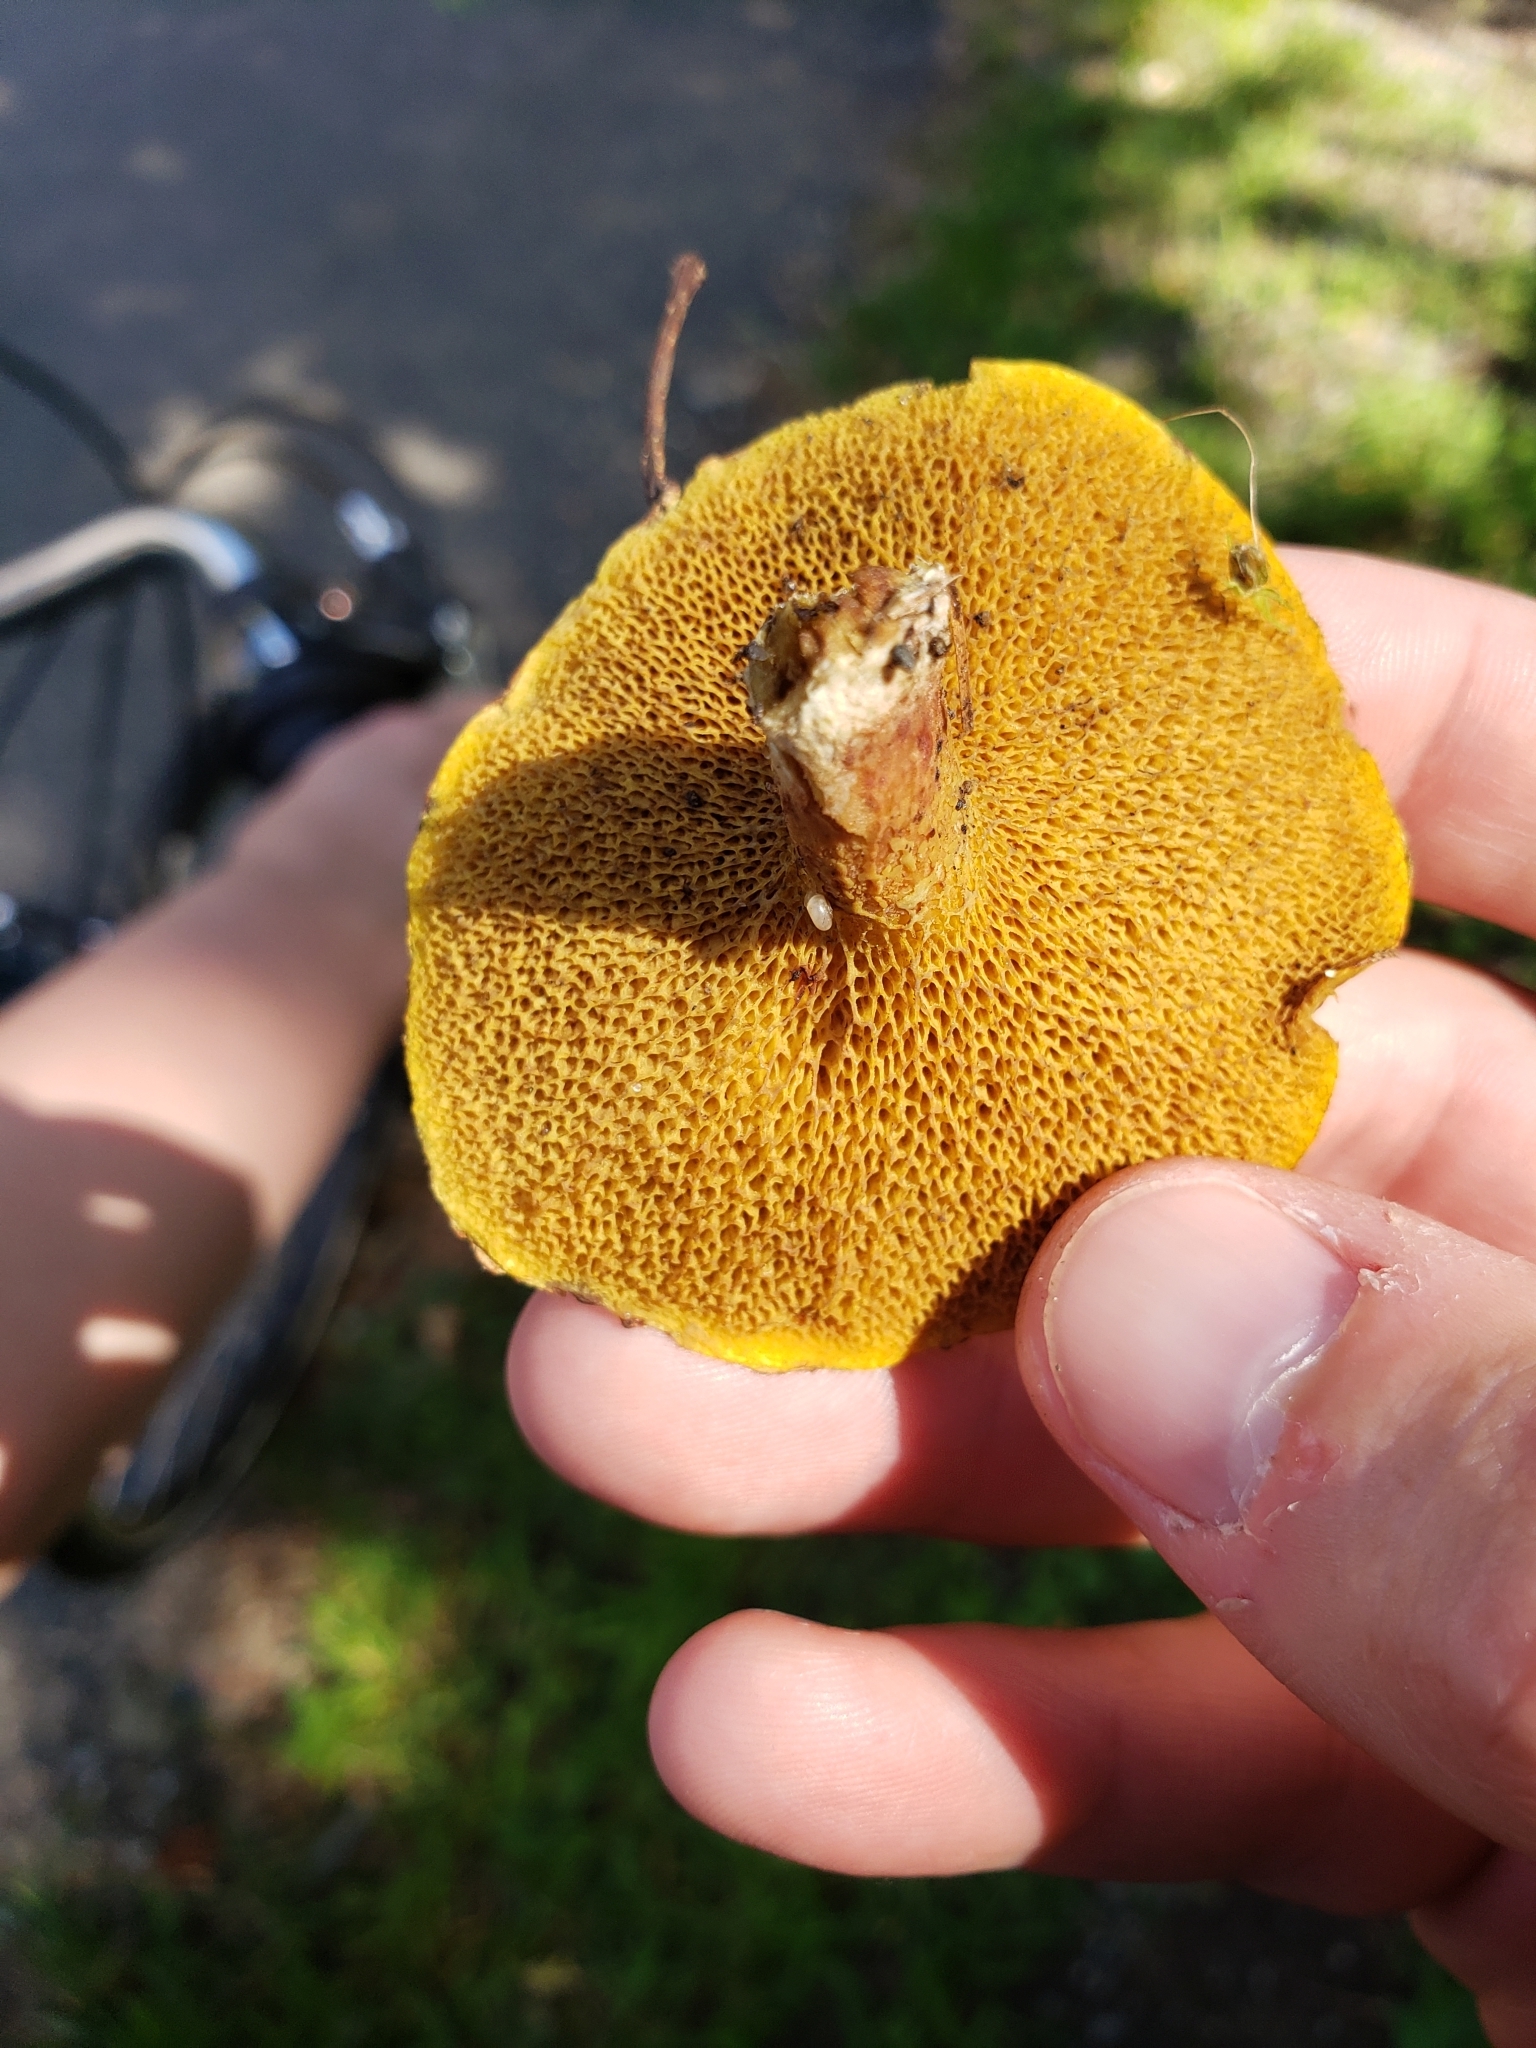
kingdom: Fungi
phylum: Basidiomycota
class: Agaricomycetes
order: Boletales
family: Suillaceae
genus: Suillus
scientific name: Suillus americanus
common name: Chicken fat mushroom
